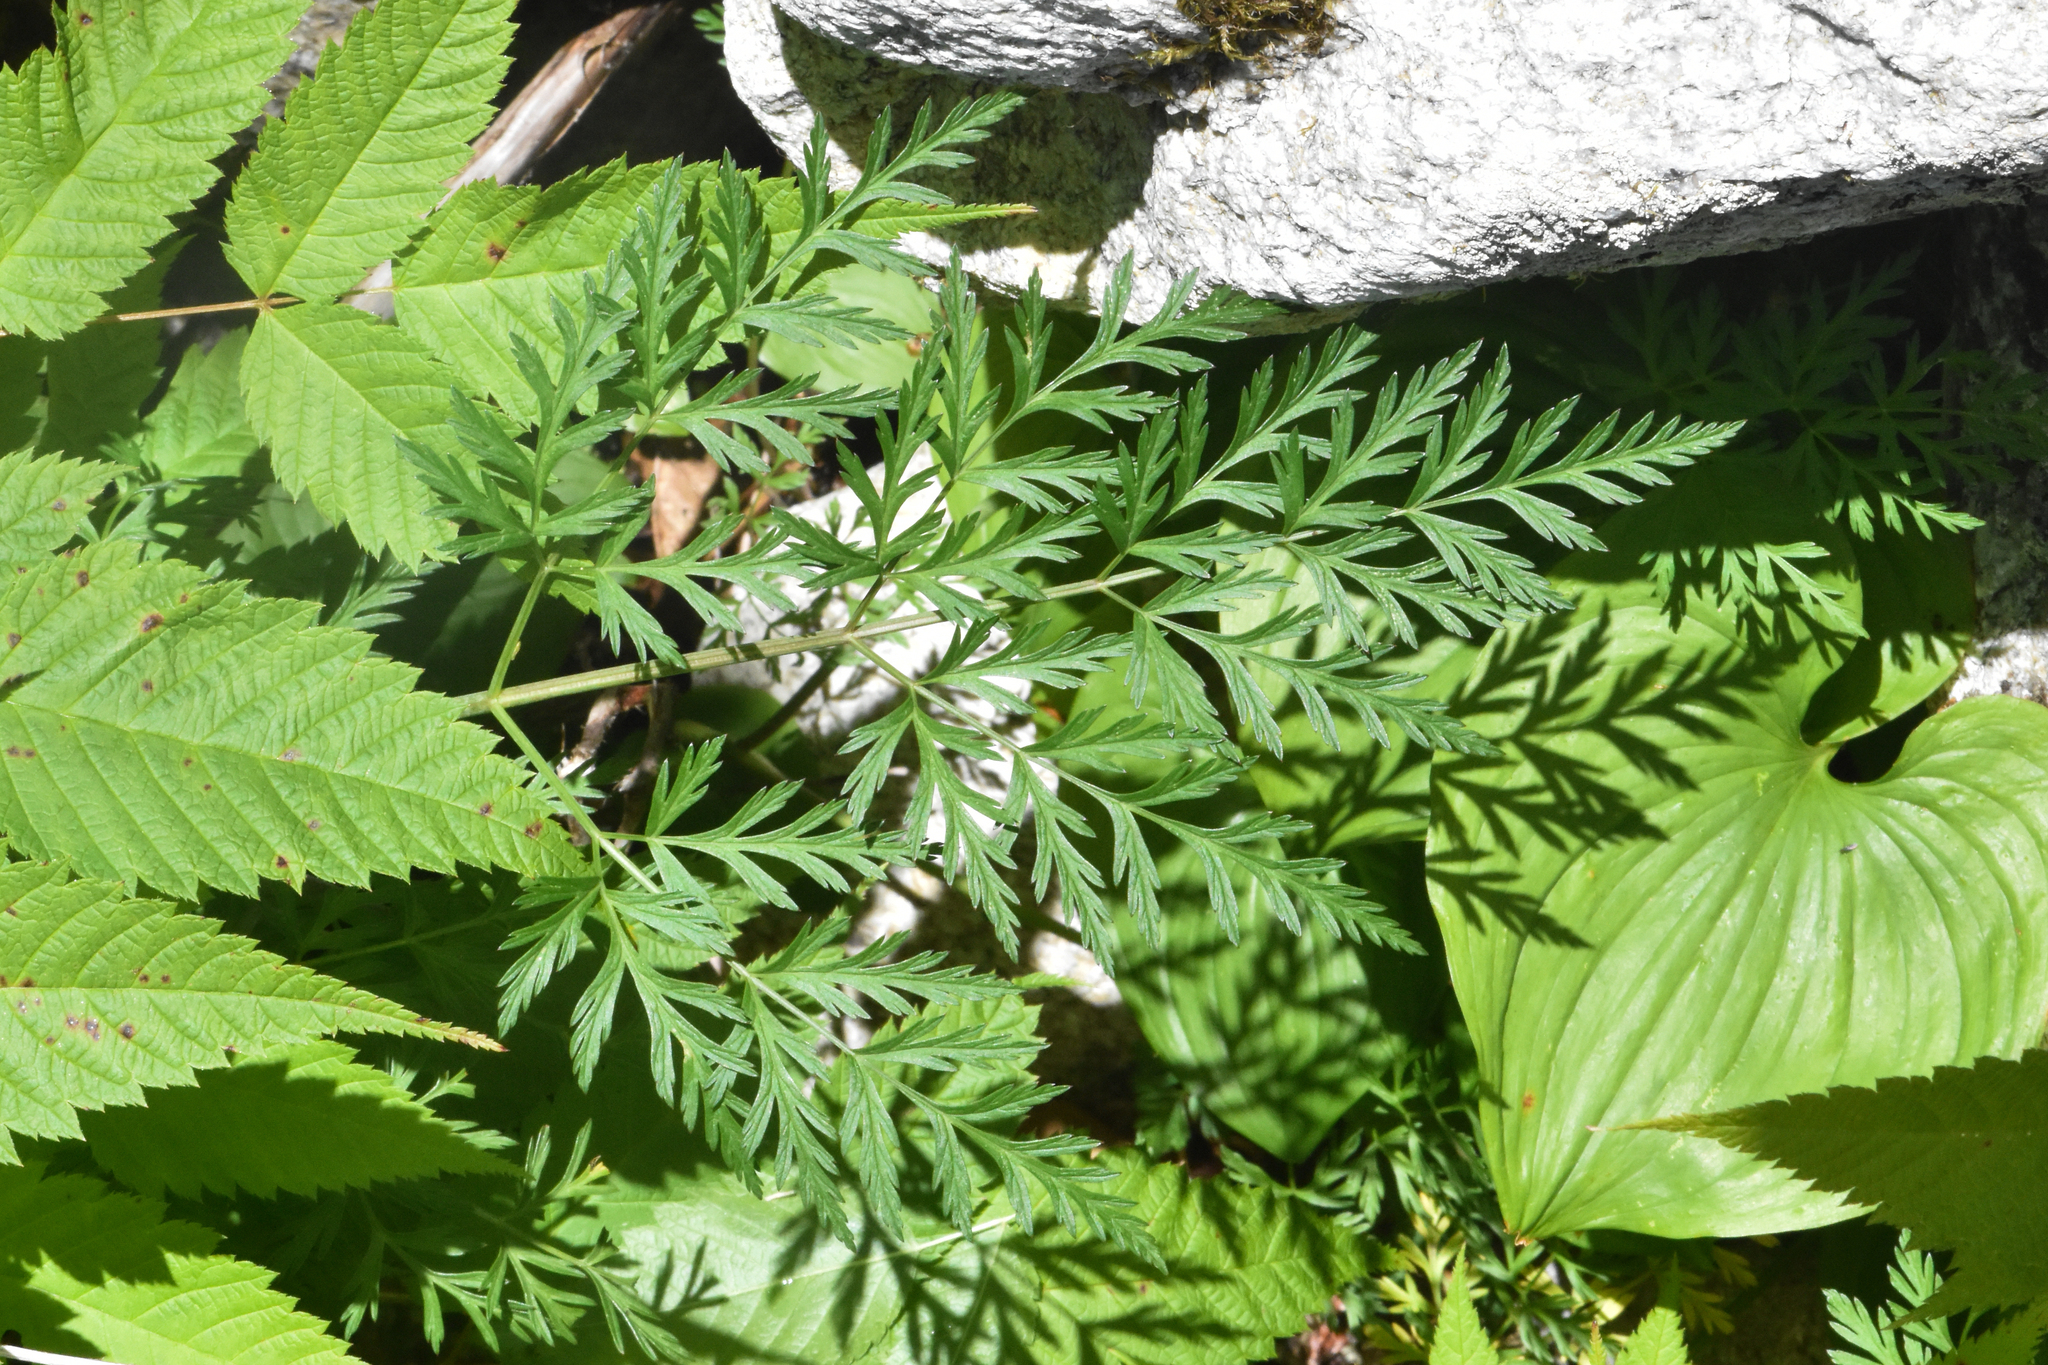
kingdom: Plantae
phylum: Tracheophyta
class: Magnoliopsida
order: Apiales
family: Apiaceae
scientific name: Apiaceae
